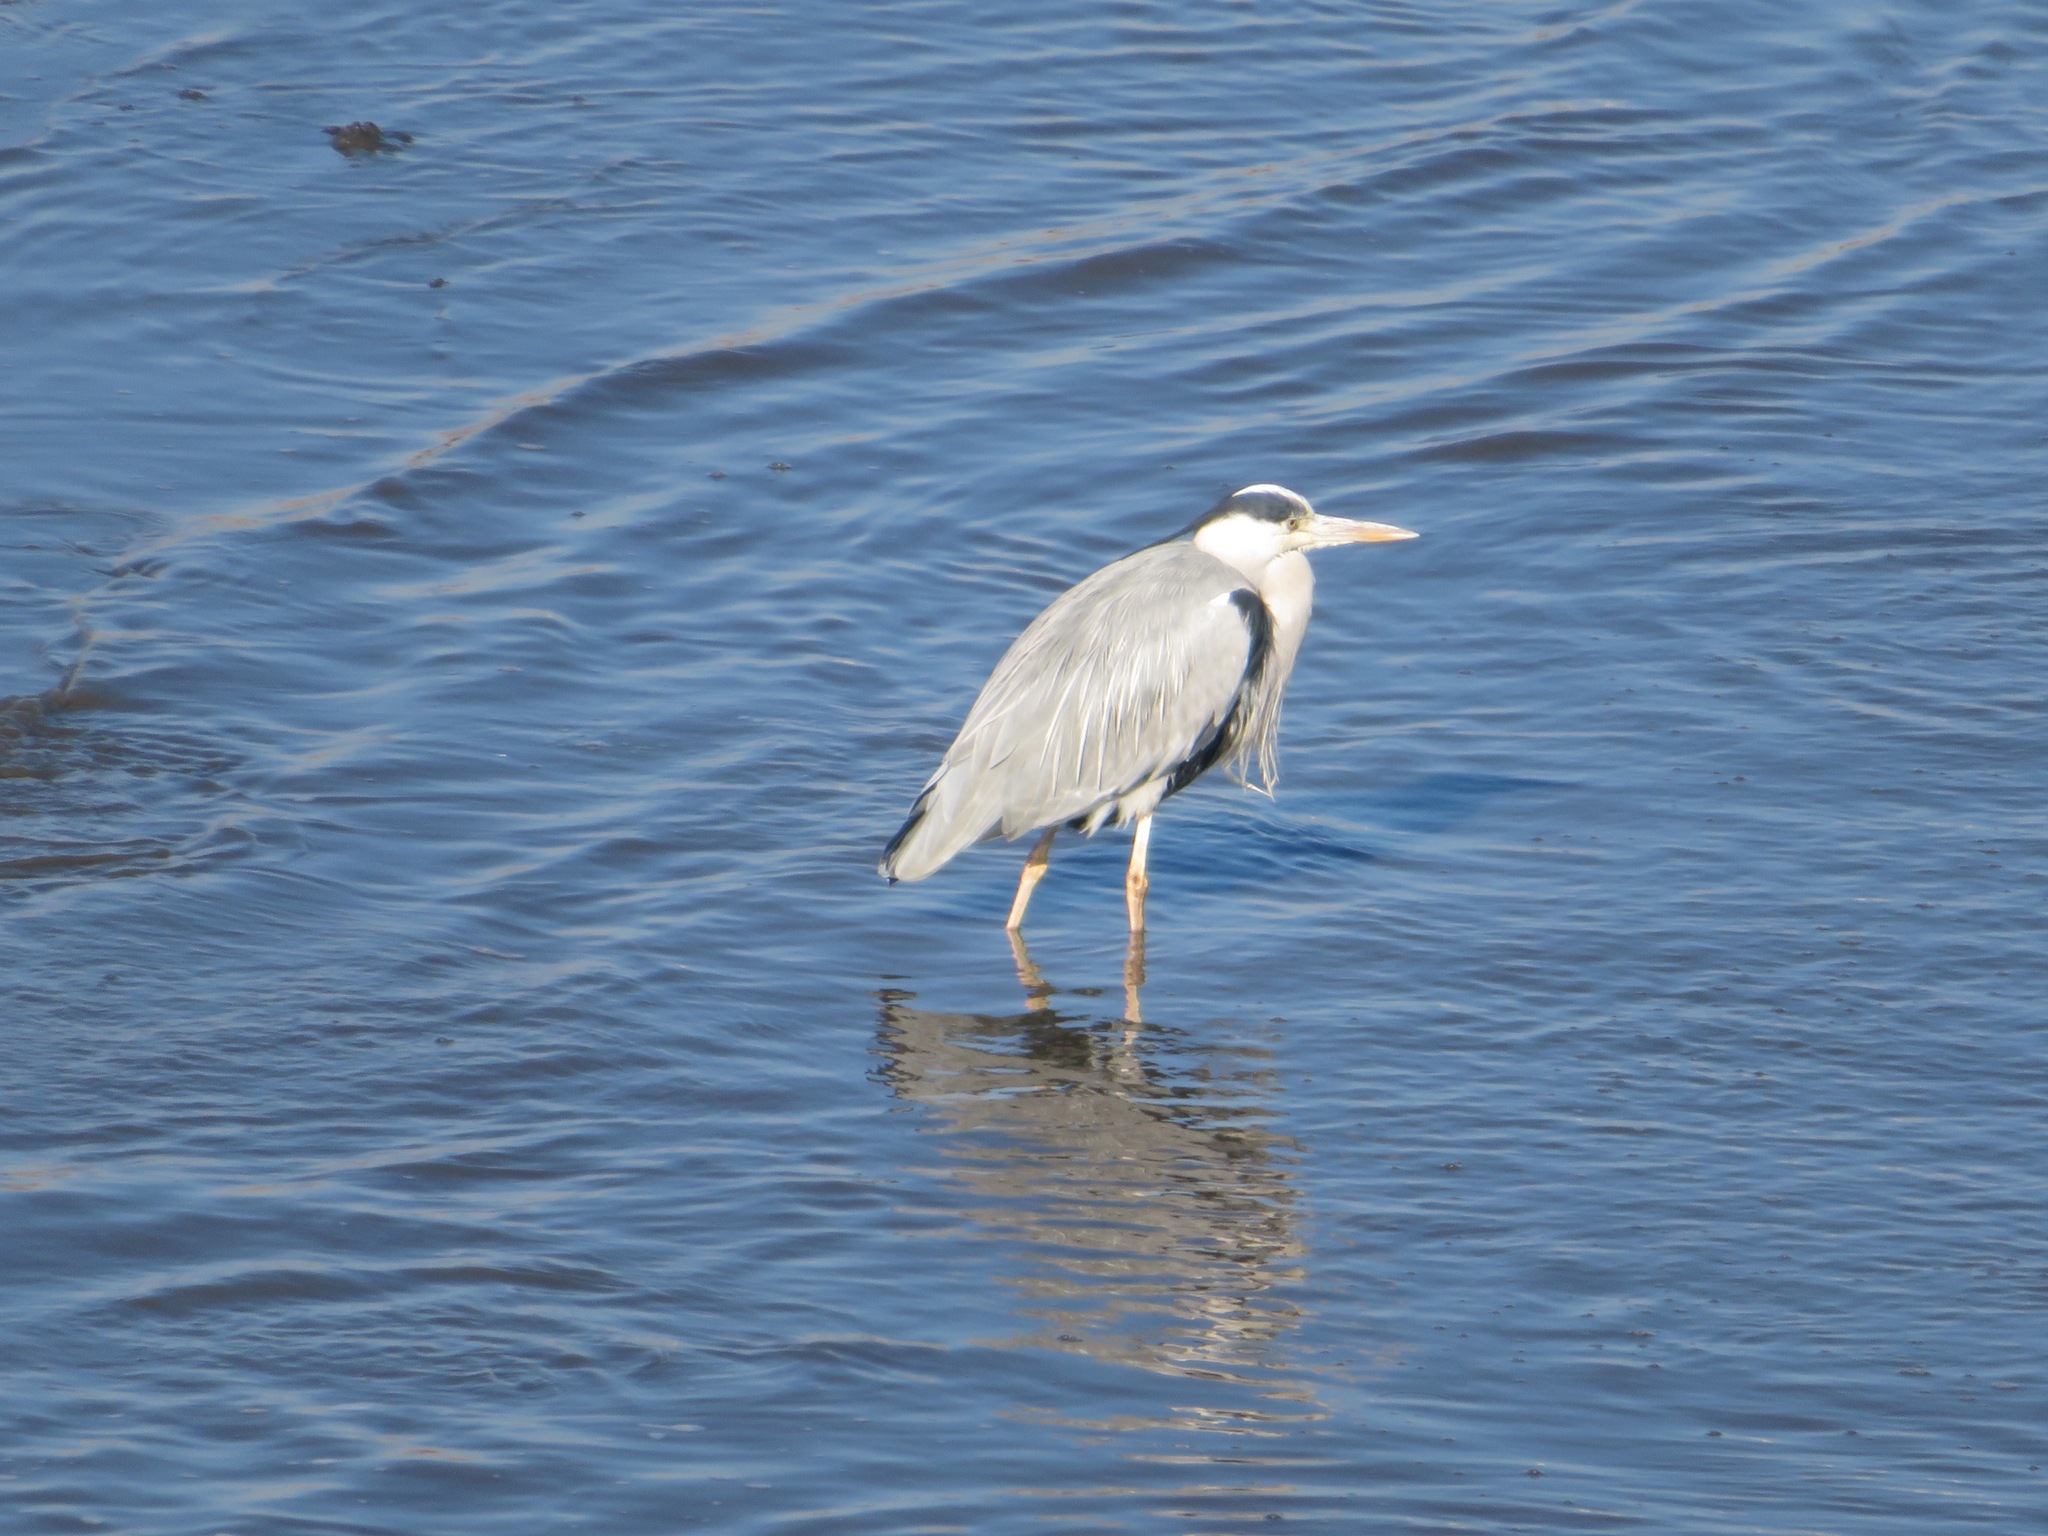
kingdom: Animalia
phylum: Chordata
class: Aves
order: Pelecaniformes
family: Ardeidae
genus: Ardea
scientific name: Ardea cinerea
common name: Grey heron
